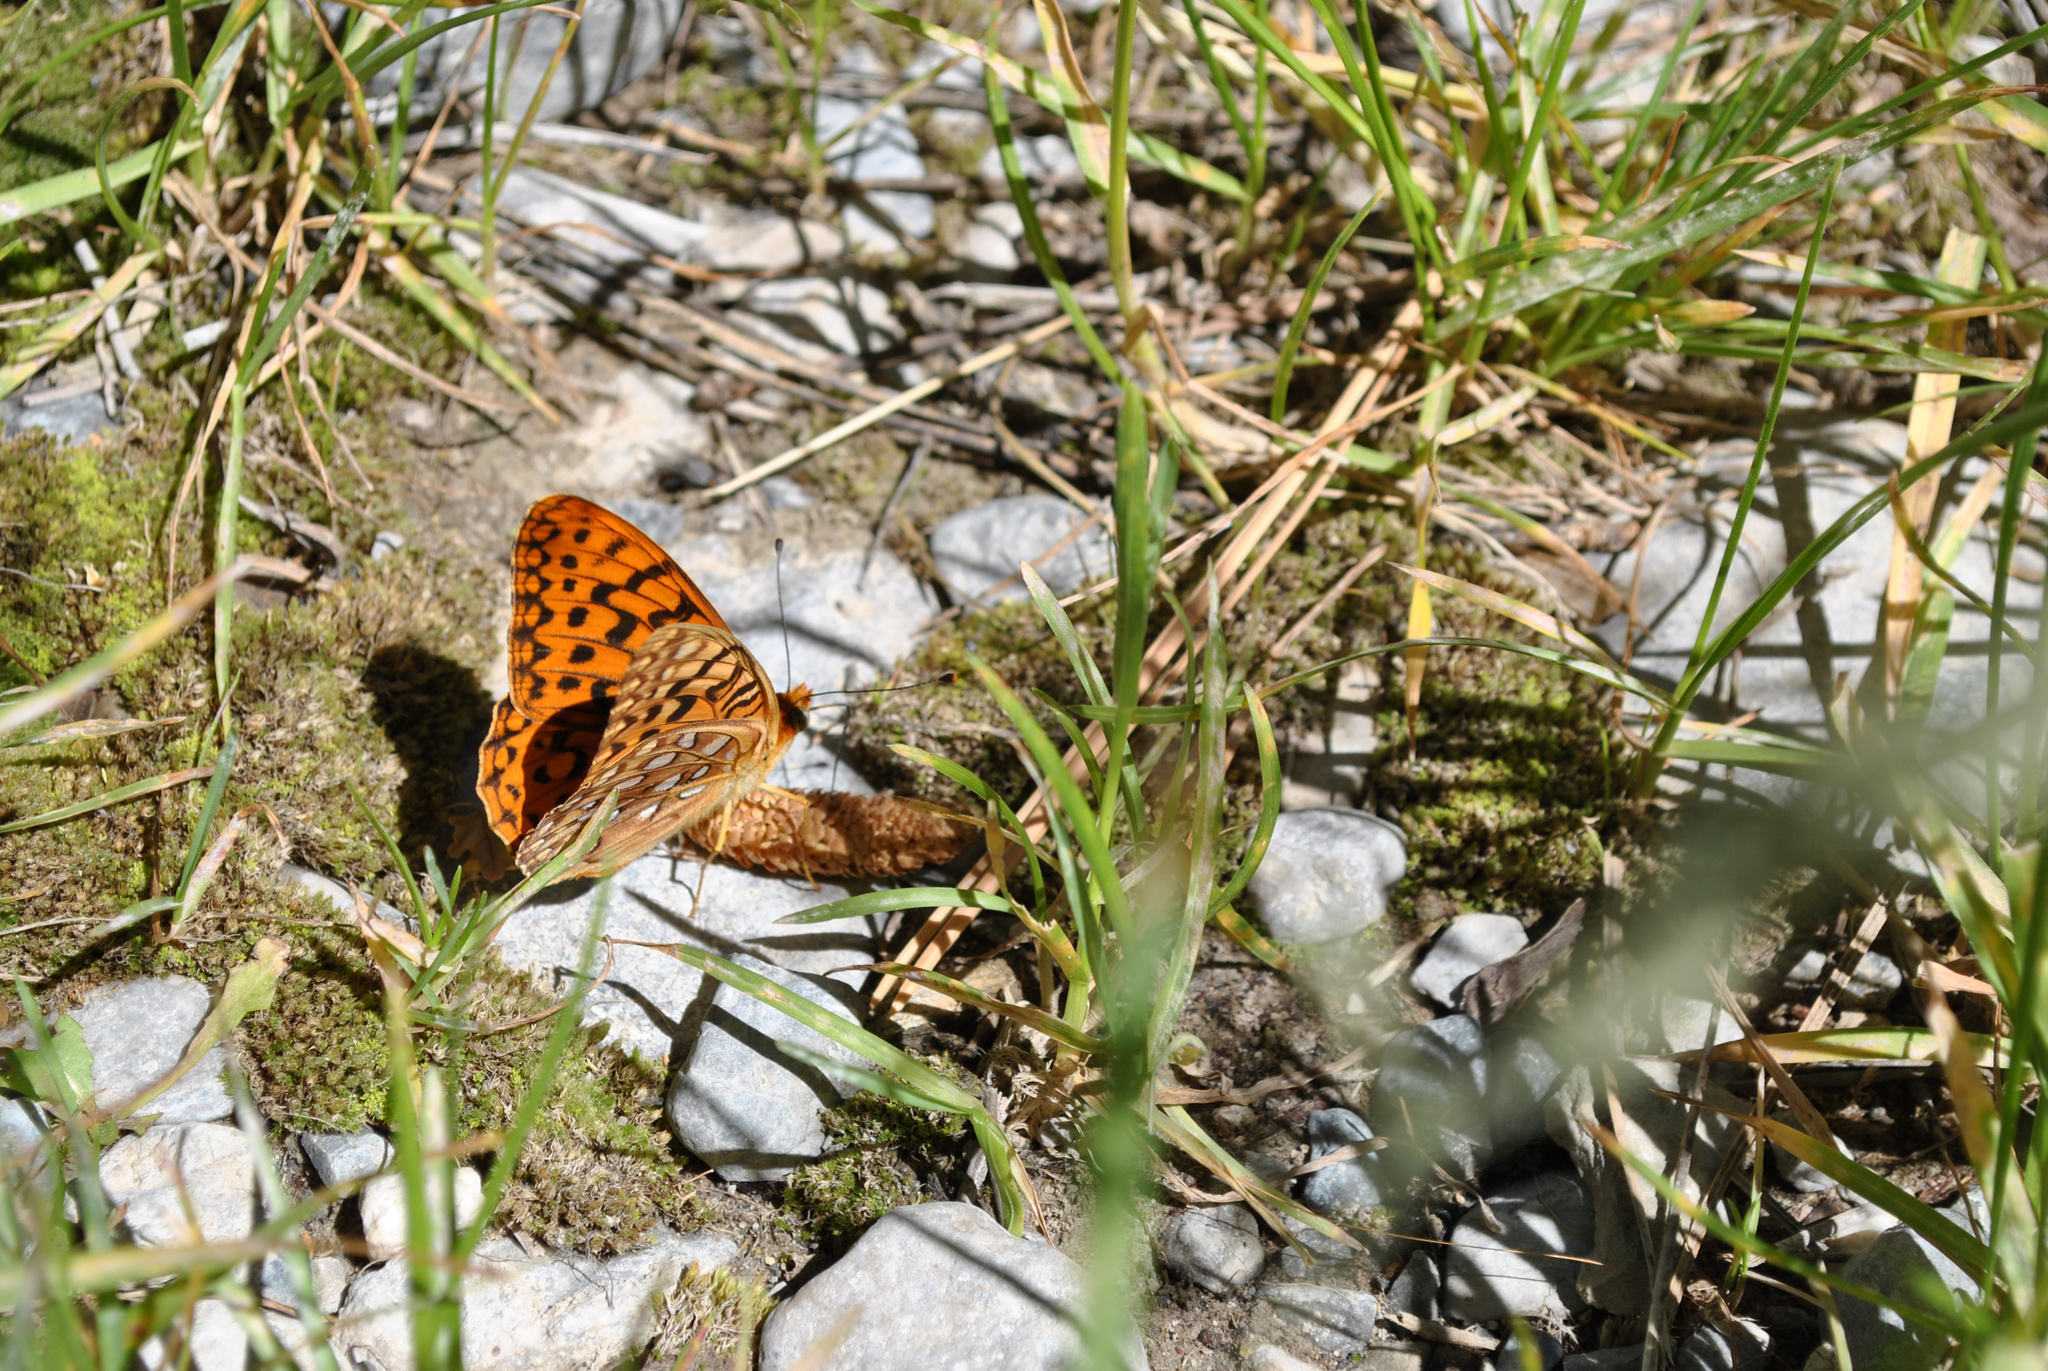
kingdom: Animalia
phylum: Arthropoda
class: Insecta
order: Lepidoptera
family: Nymphalidae
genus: Argynnis
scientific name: Argynnis coronis
